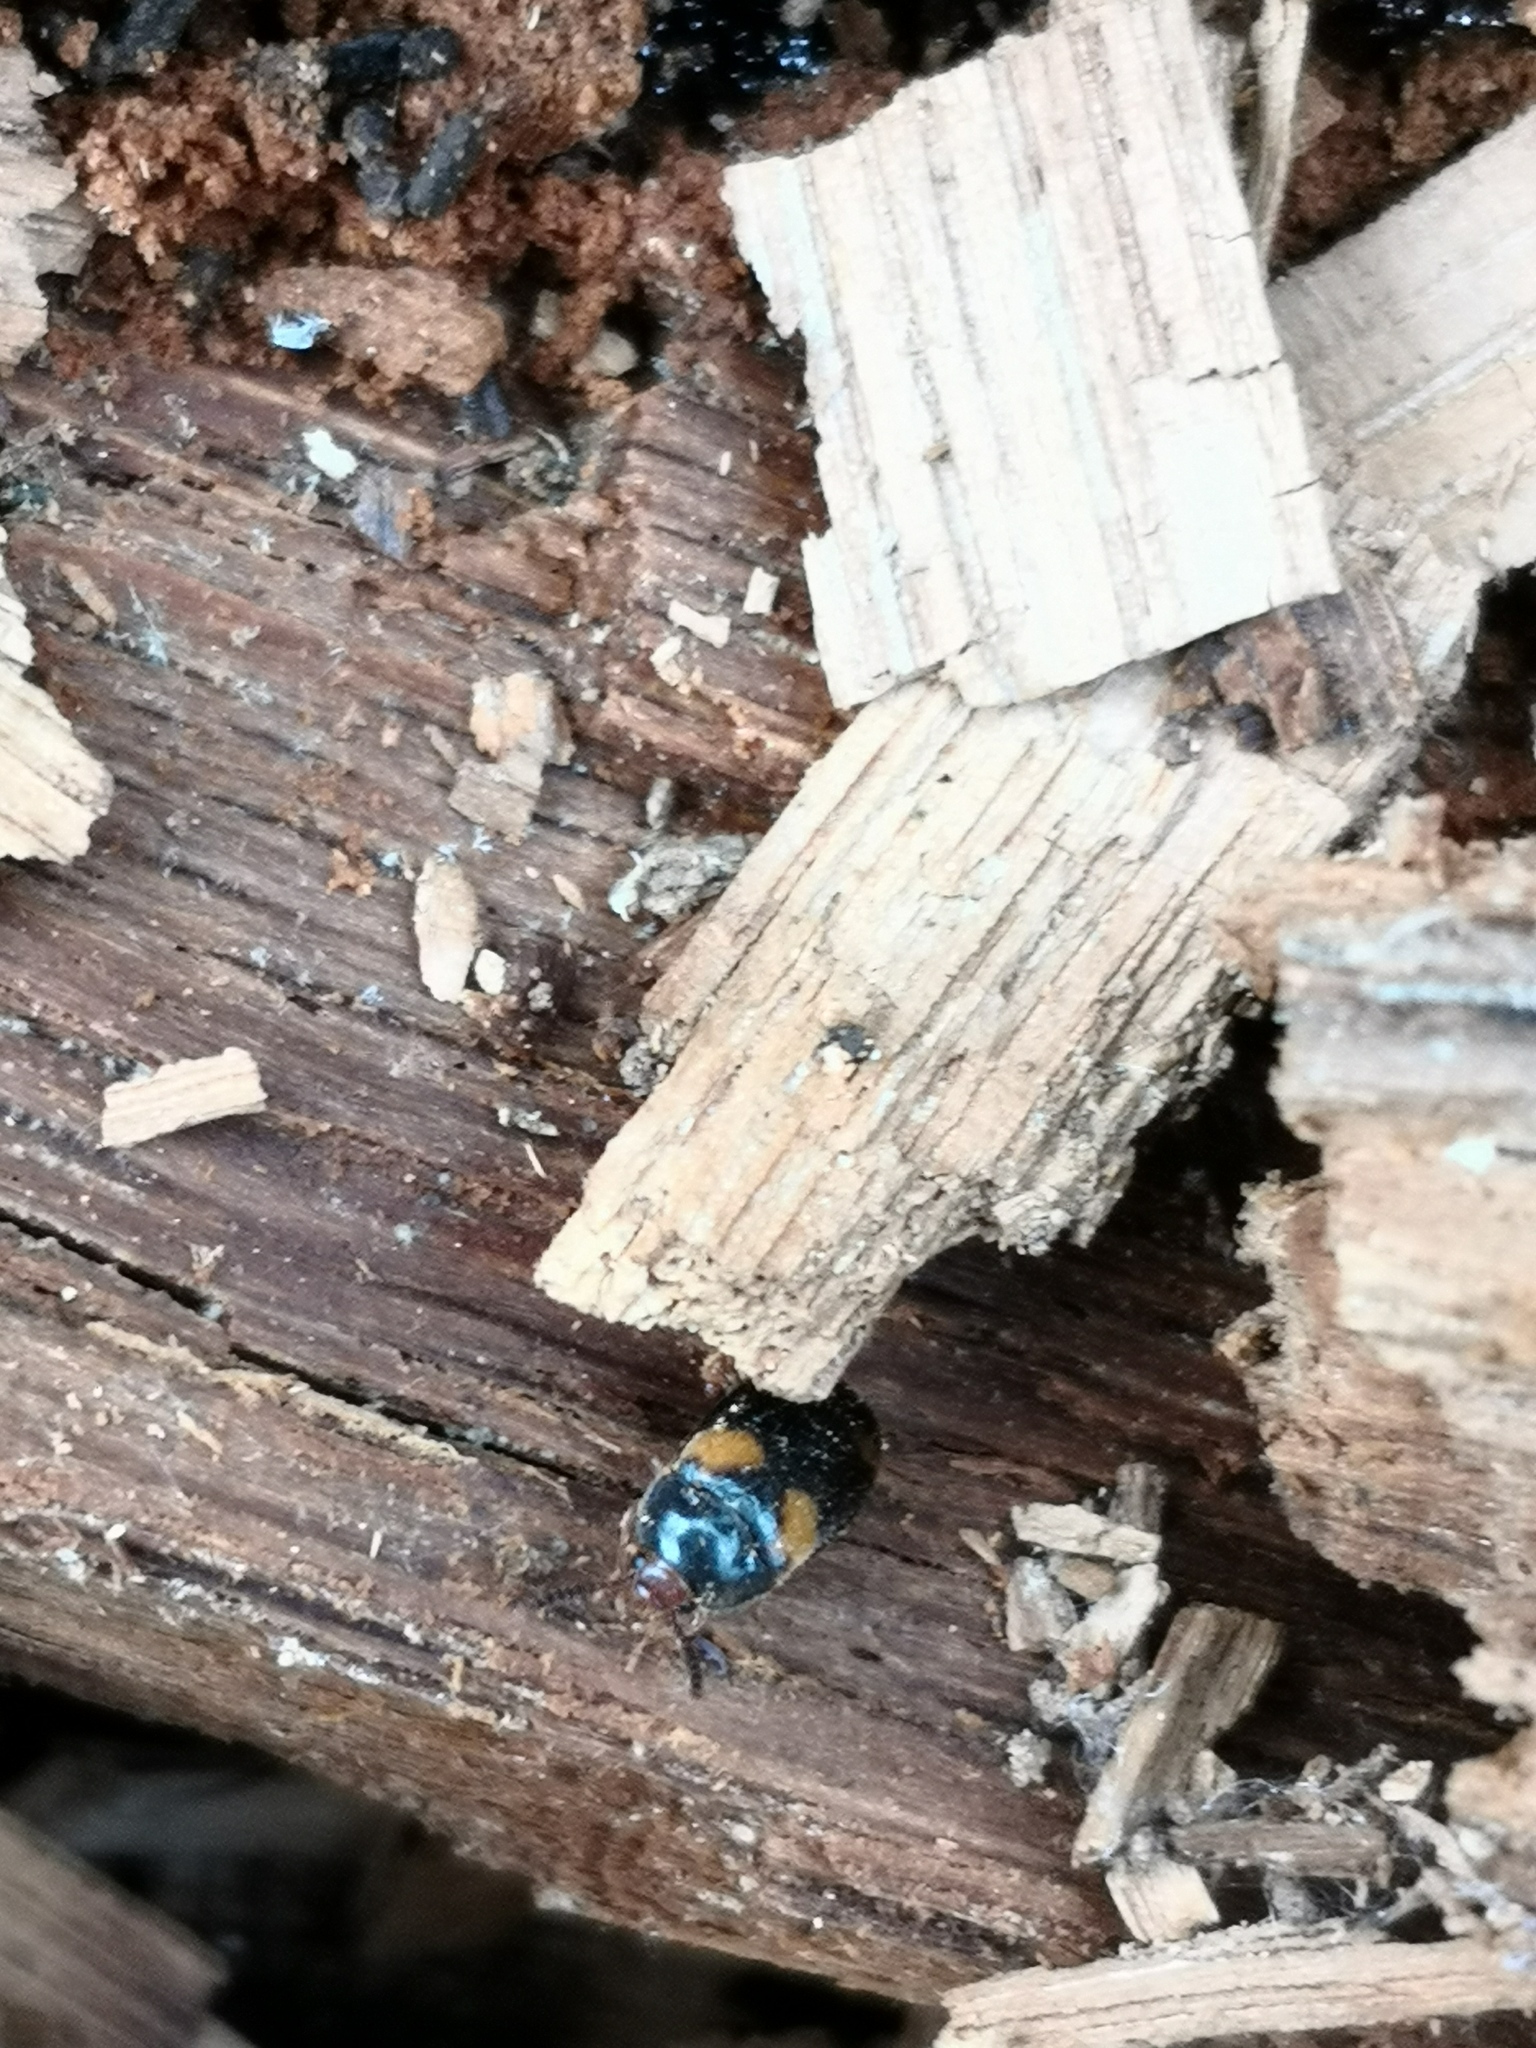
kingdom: Animalia
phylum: Arthropoda
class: Insecta
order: Coleoptera
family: Mycetophagidae
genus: Mycetophagus
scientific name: Mycetophagus quadripustulatus
